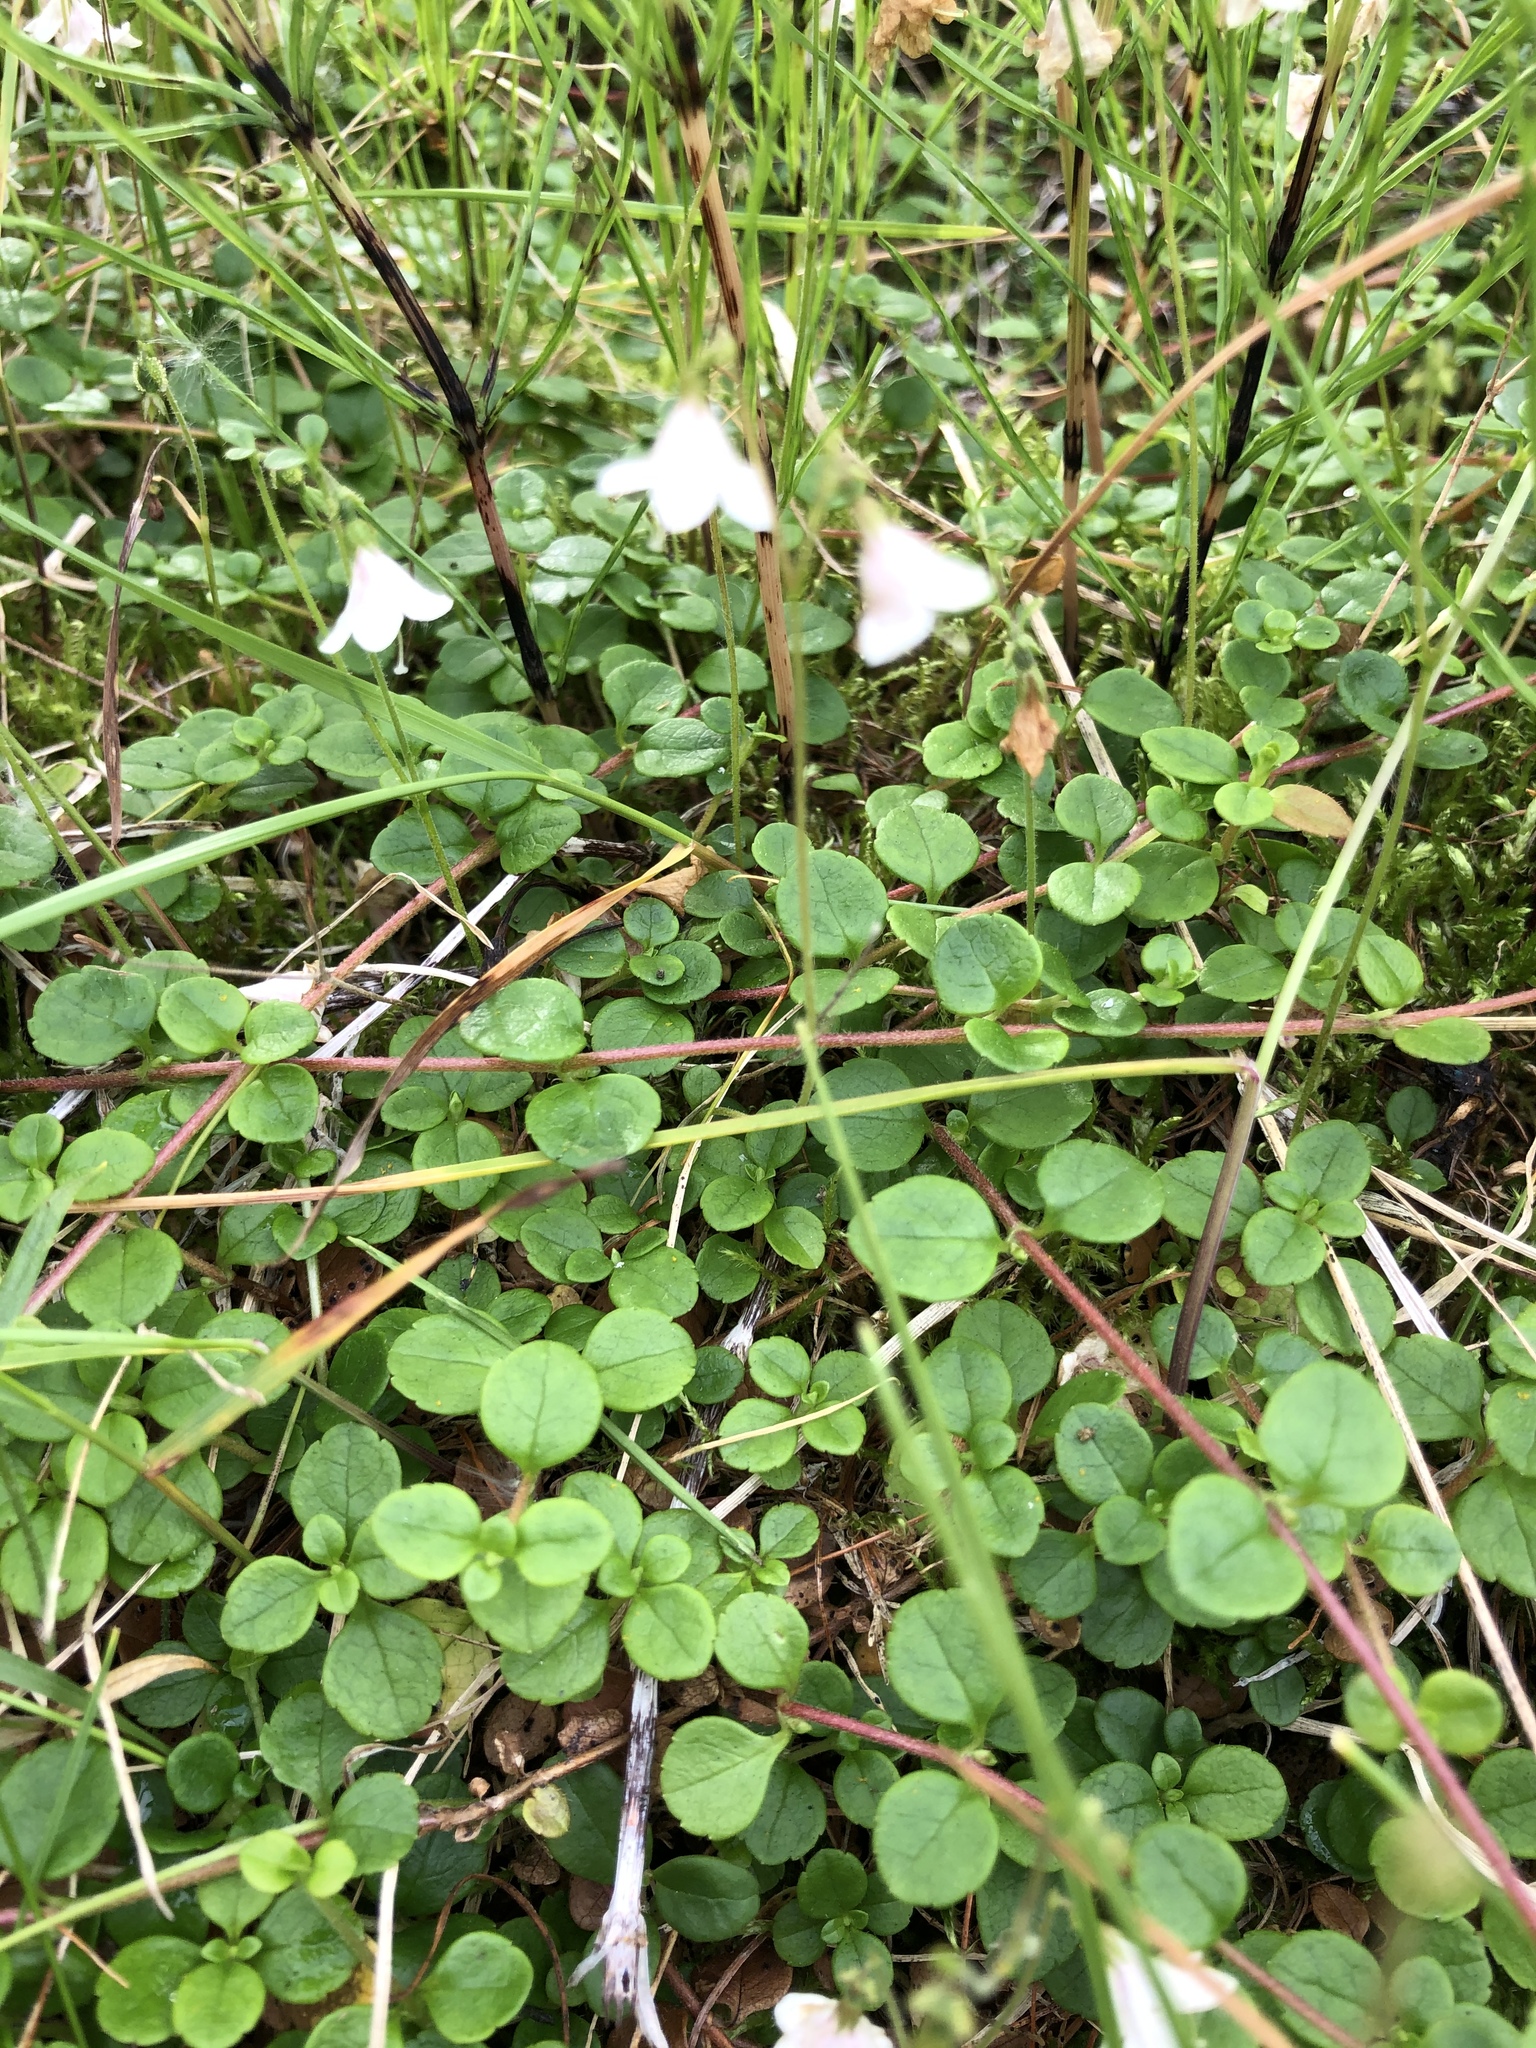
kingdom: Plantae
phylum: Tracheophyta
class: Magnoliopsida
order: Dipsacales
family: Caprifoliaceae
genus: Linnaea
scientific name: Linnaea borealis
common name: Twinflower
